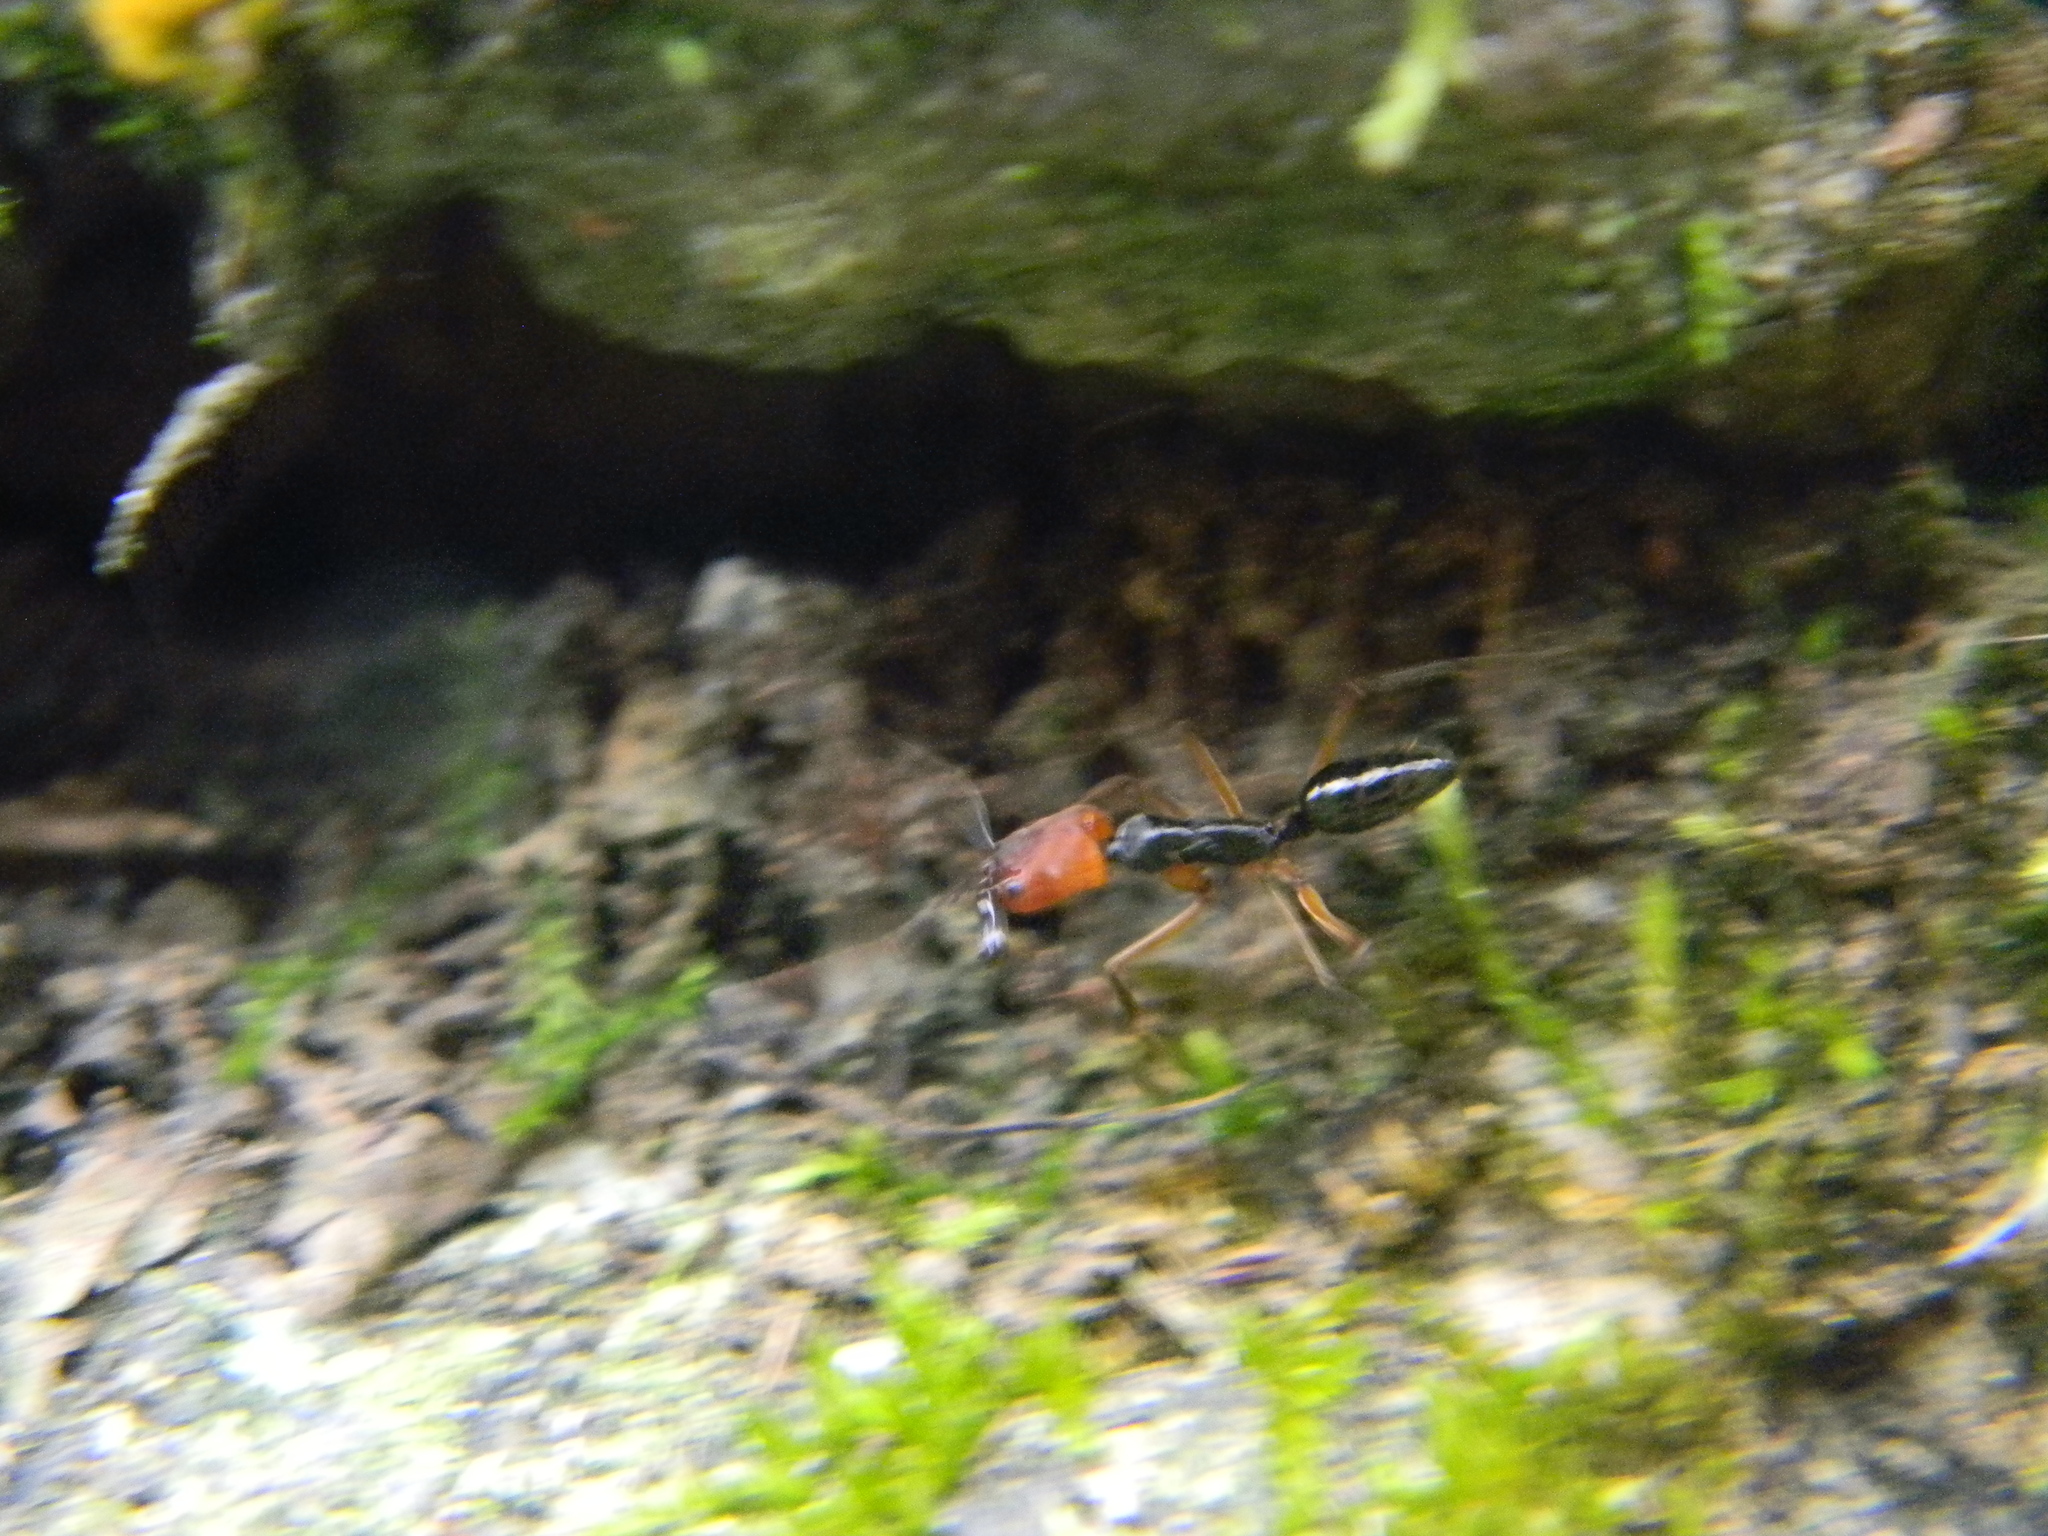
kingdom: Animalia
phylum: Arthropoda
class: Insecta
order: Hymenoptera
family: Formicidae
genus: Odontomachus
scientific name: Odontomachus erythrocephalus
